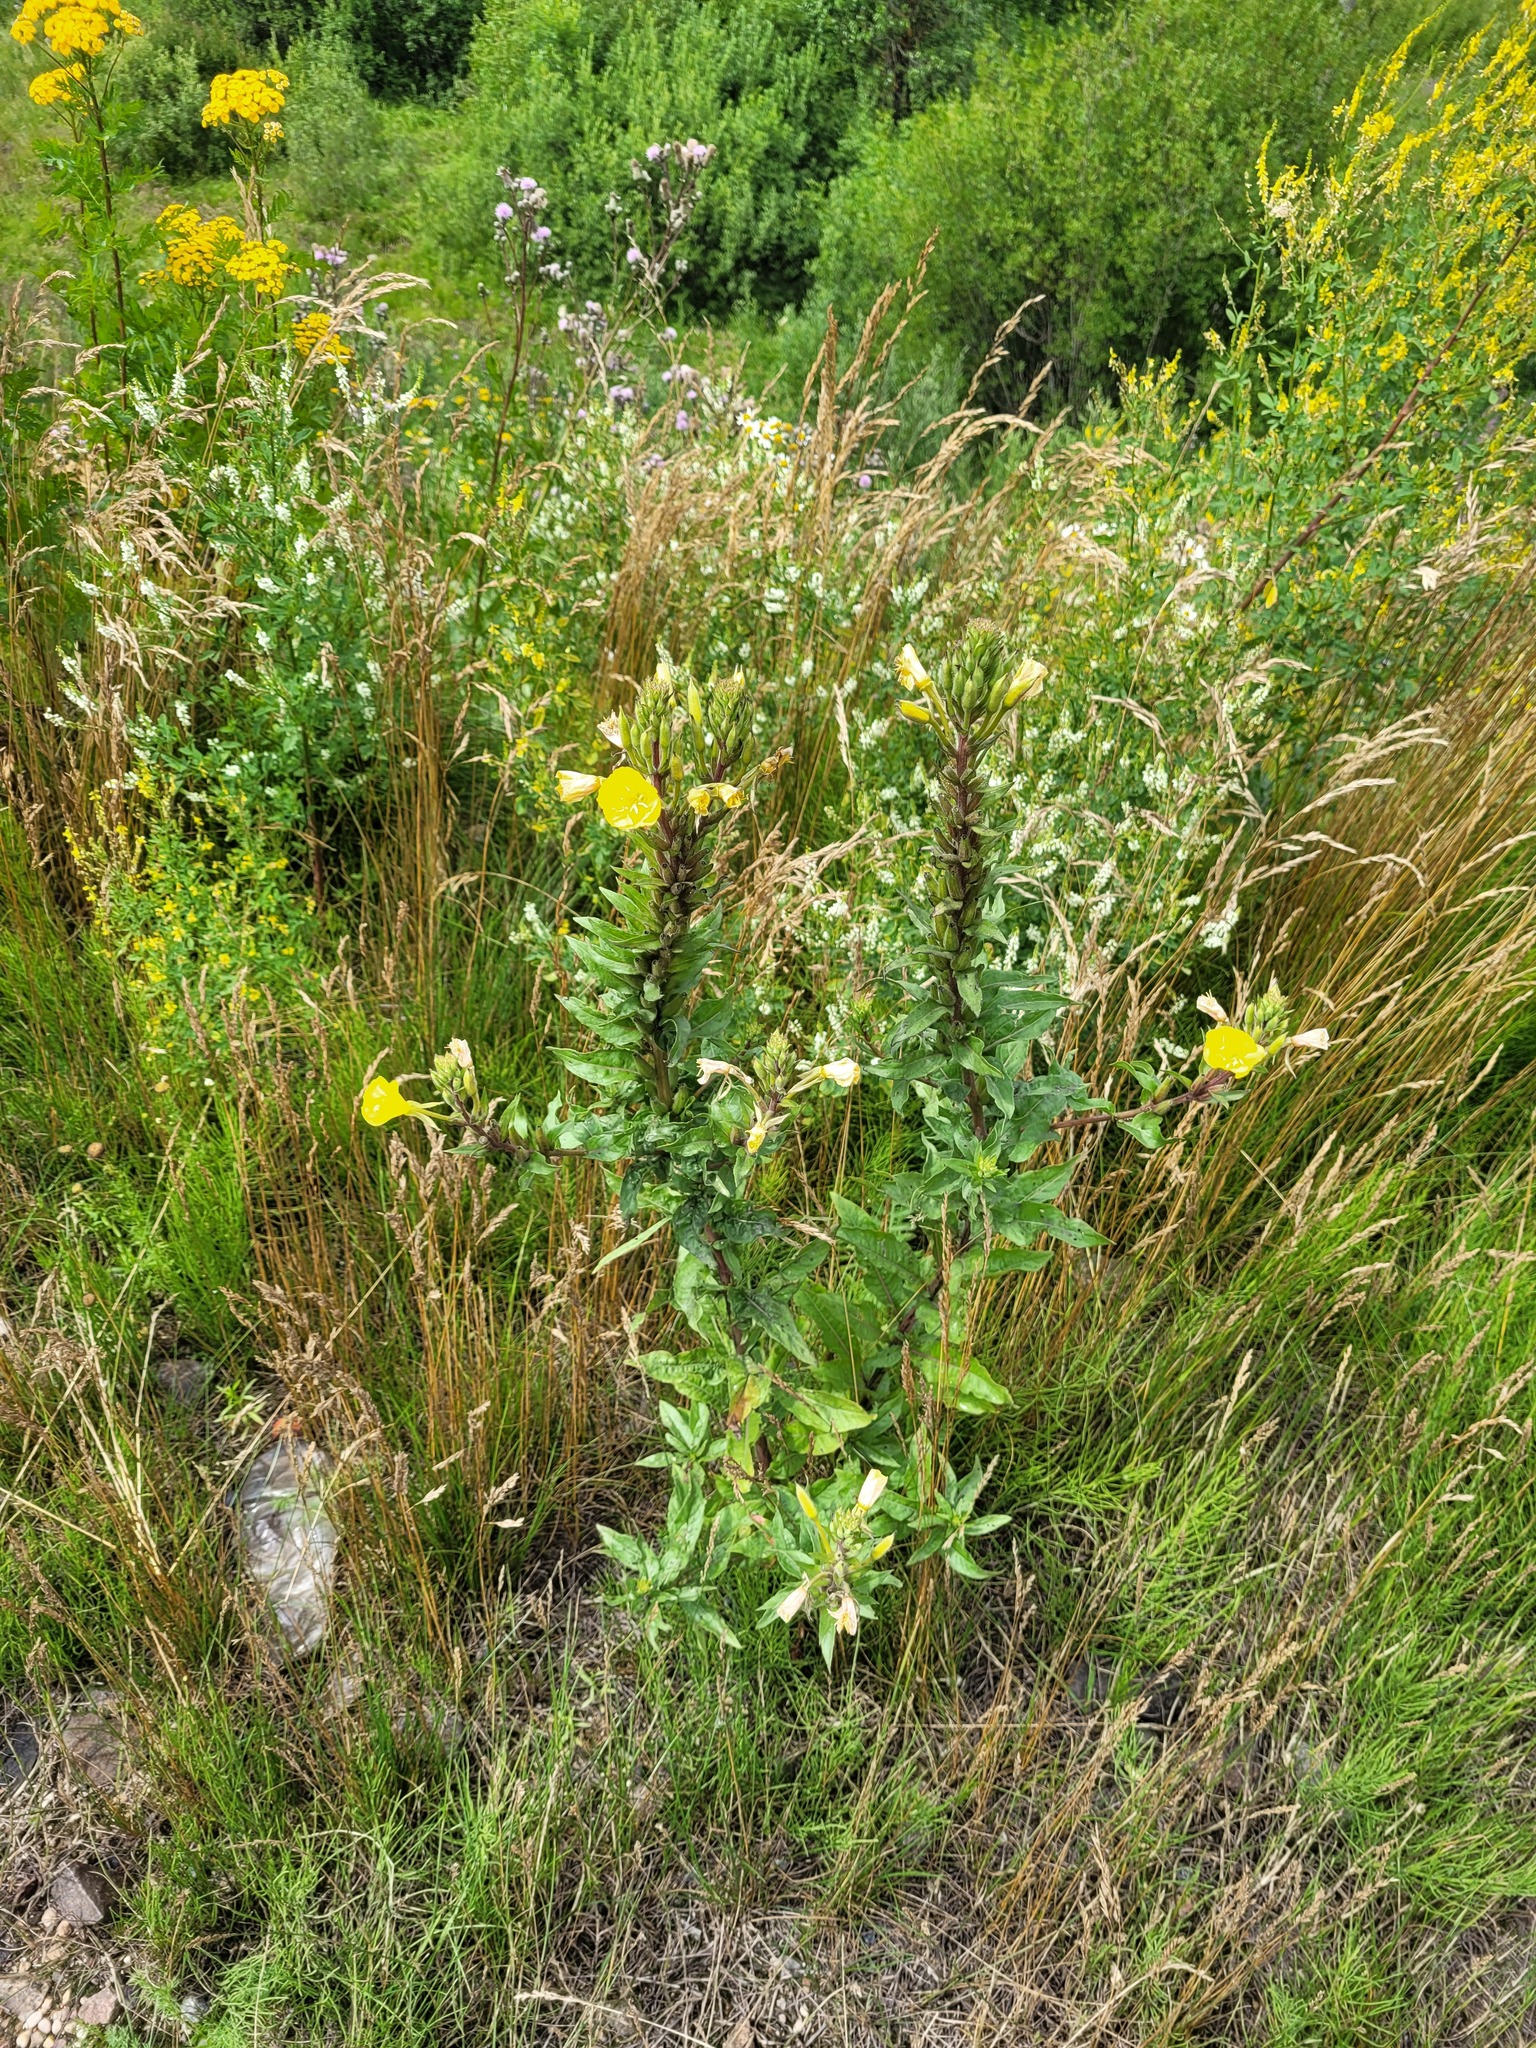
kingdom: Plantae
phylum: Tracheophyta
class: Magnoliopsida
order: Myrtales
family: Onagraceae
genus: Oenothera
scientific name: Oenothera rubricaulis
